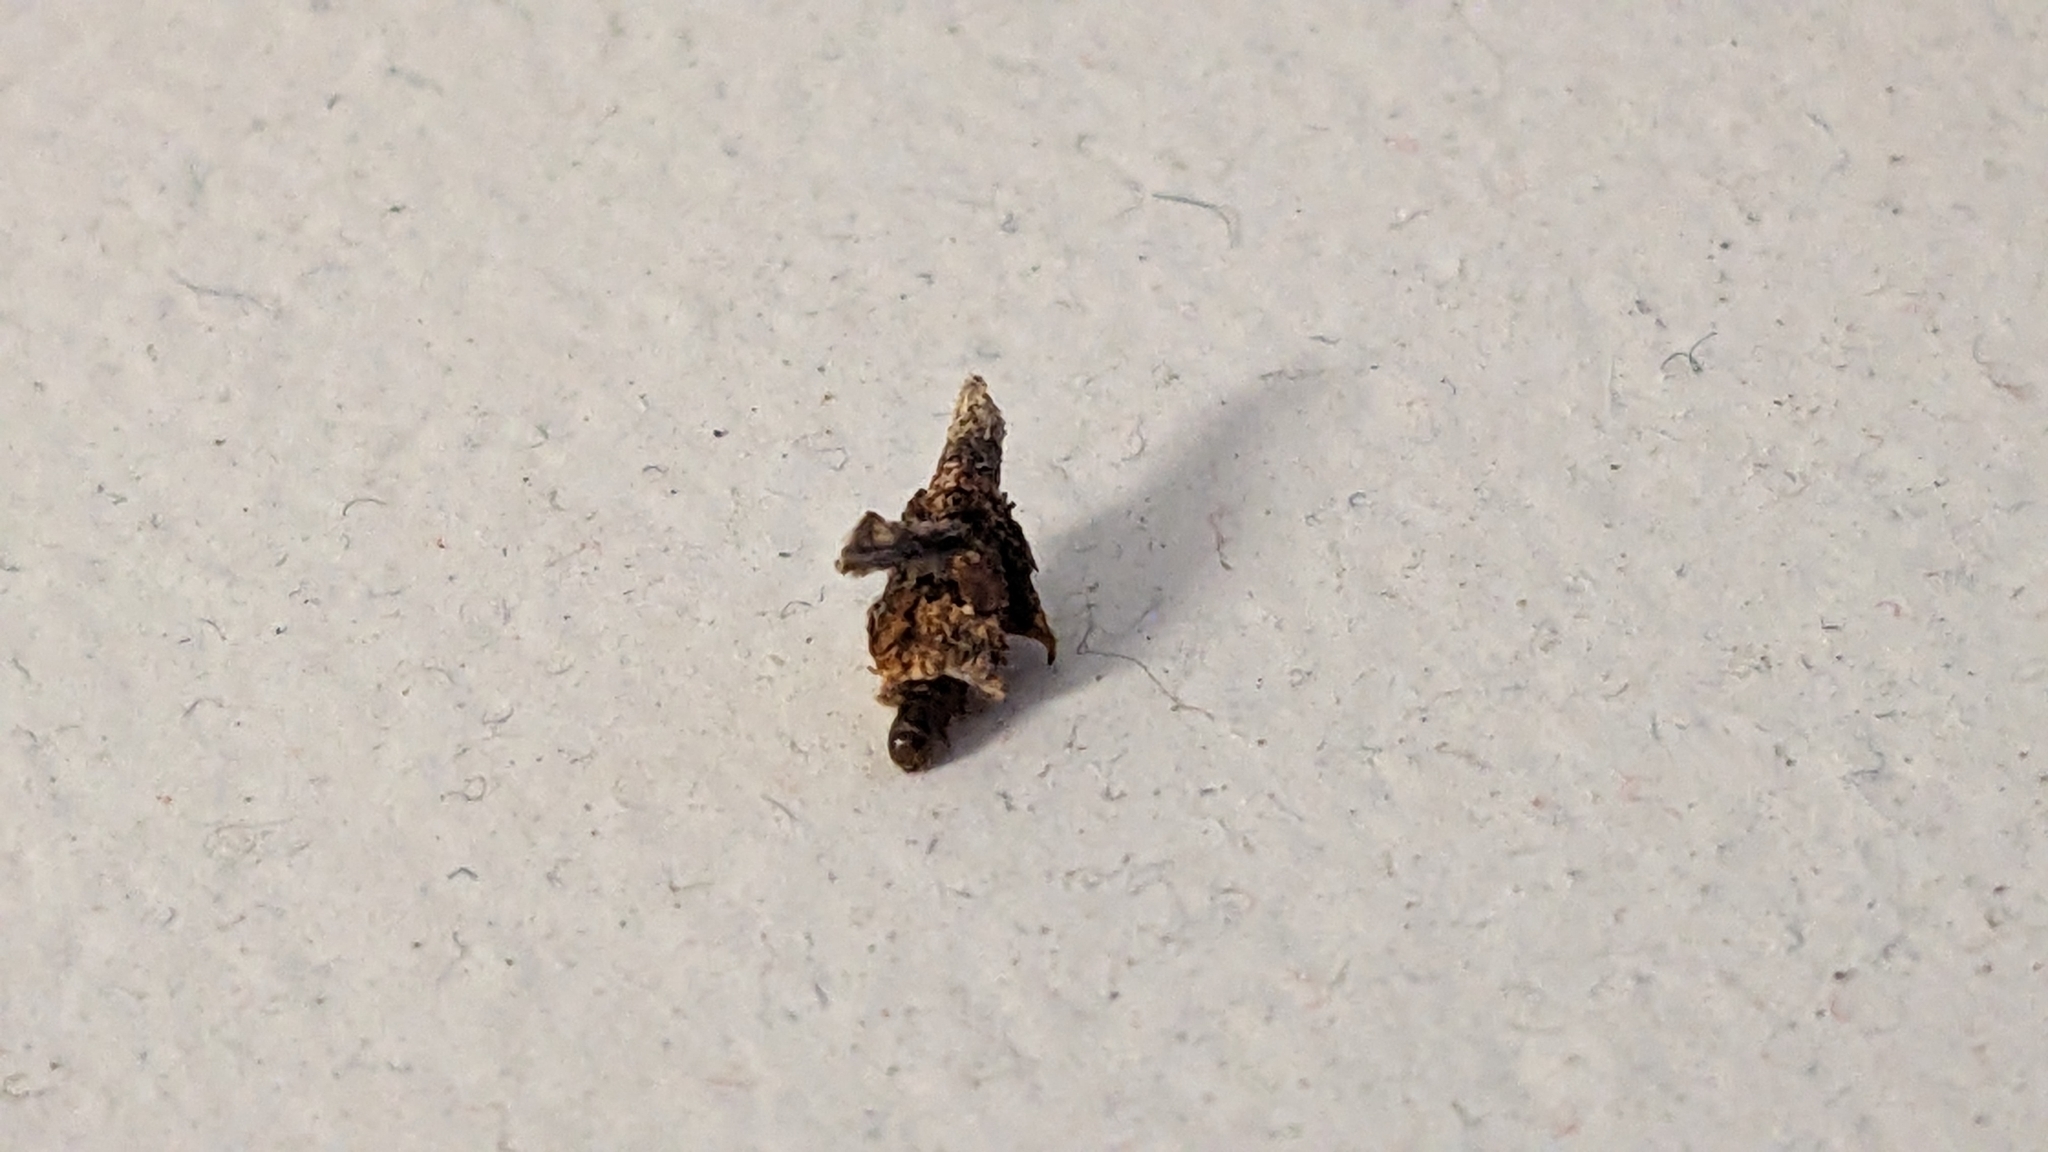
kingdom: Animalia
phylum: Arthropoda
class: Insecta
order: Lepidoptera
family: Psychidae
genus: Liothula
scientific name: Liothula omnivora
